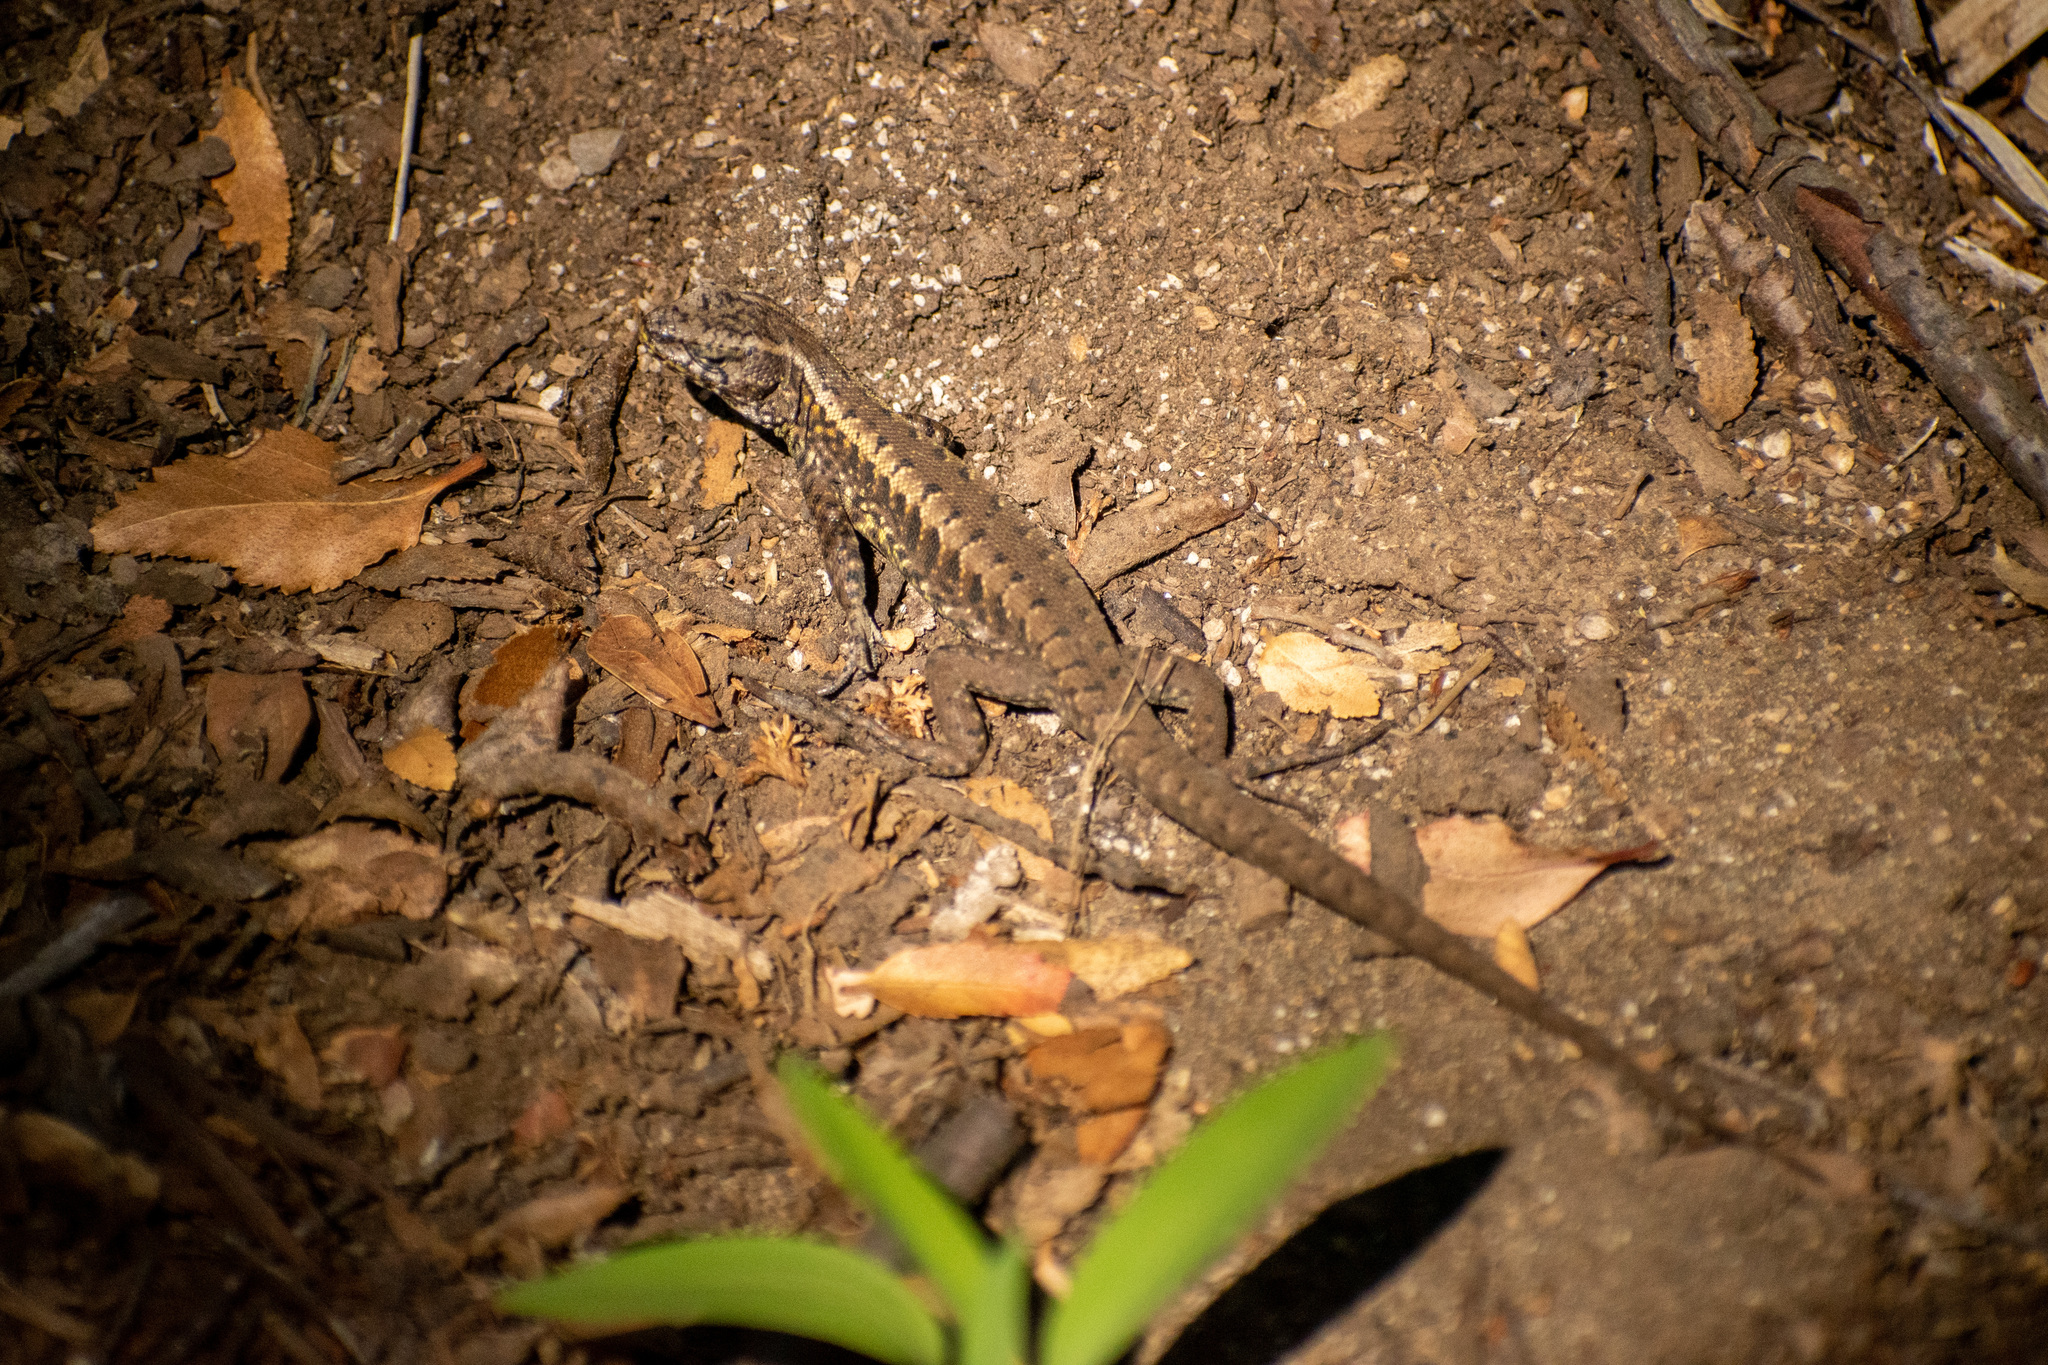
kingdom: Animalia
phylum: Chordata
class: Squamata
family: Liolaemidae
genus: Liolaemus
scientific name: Liolaemus pictus
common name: Painted tree iguana
